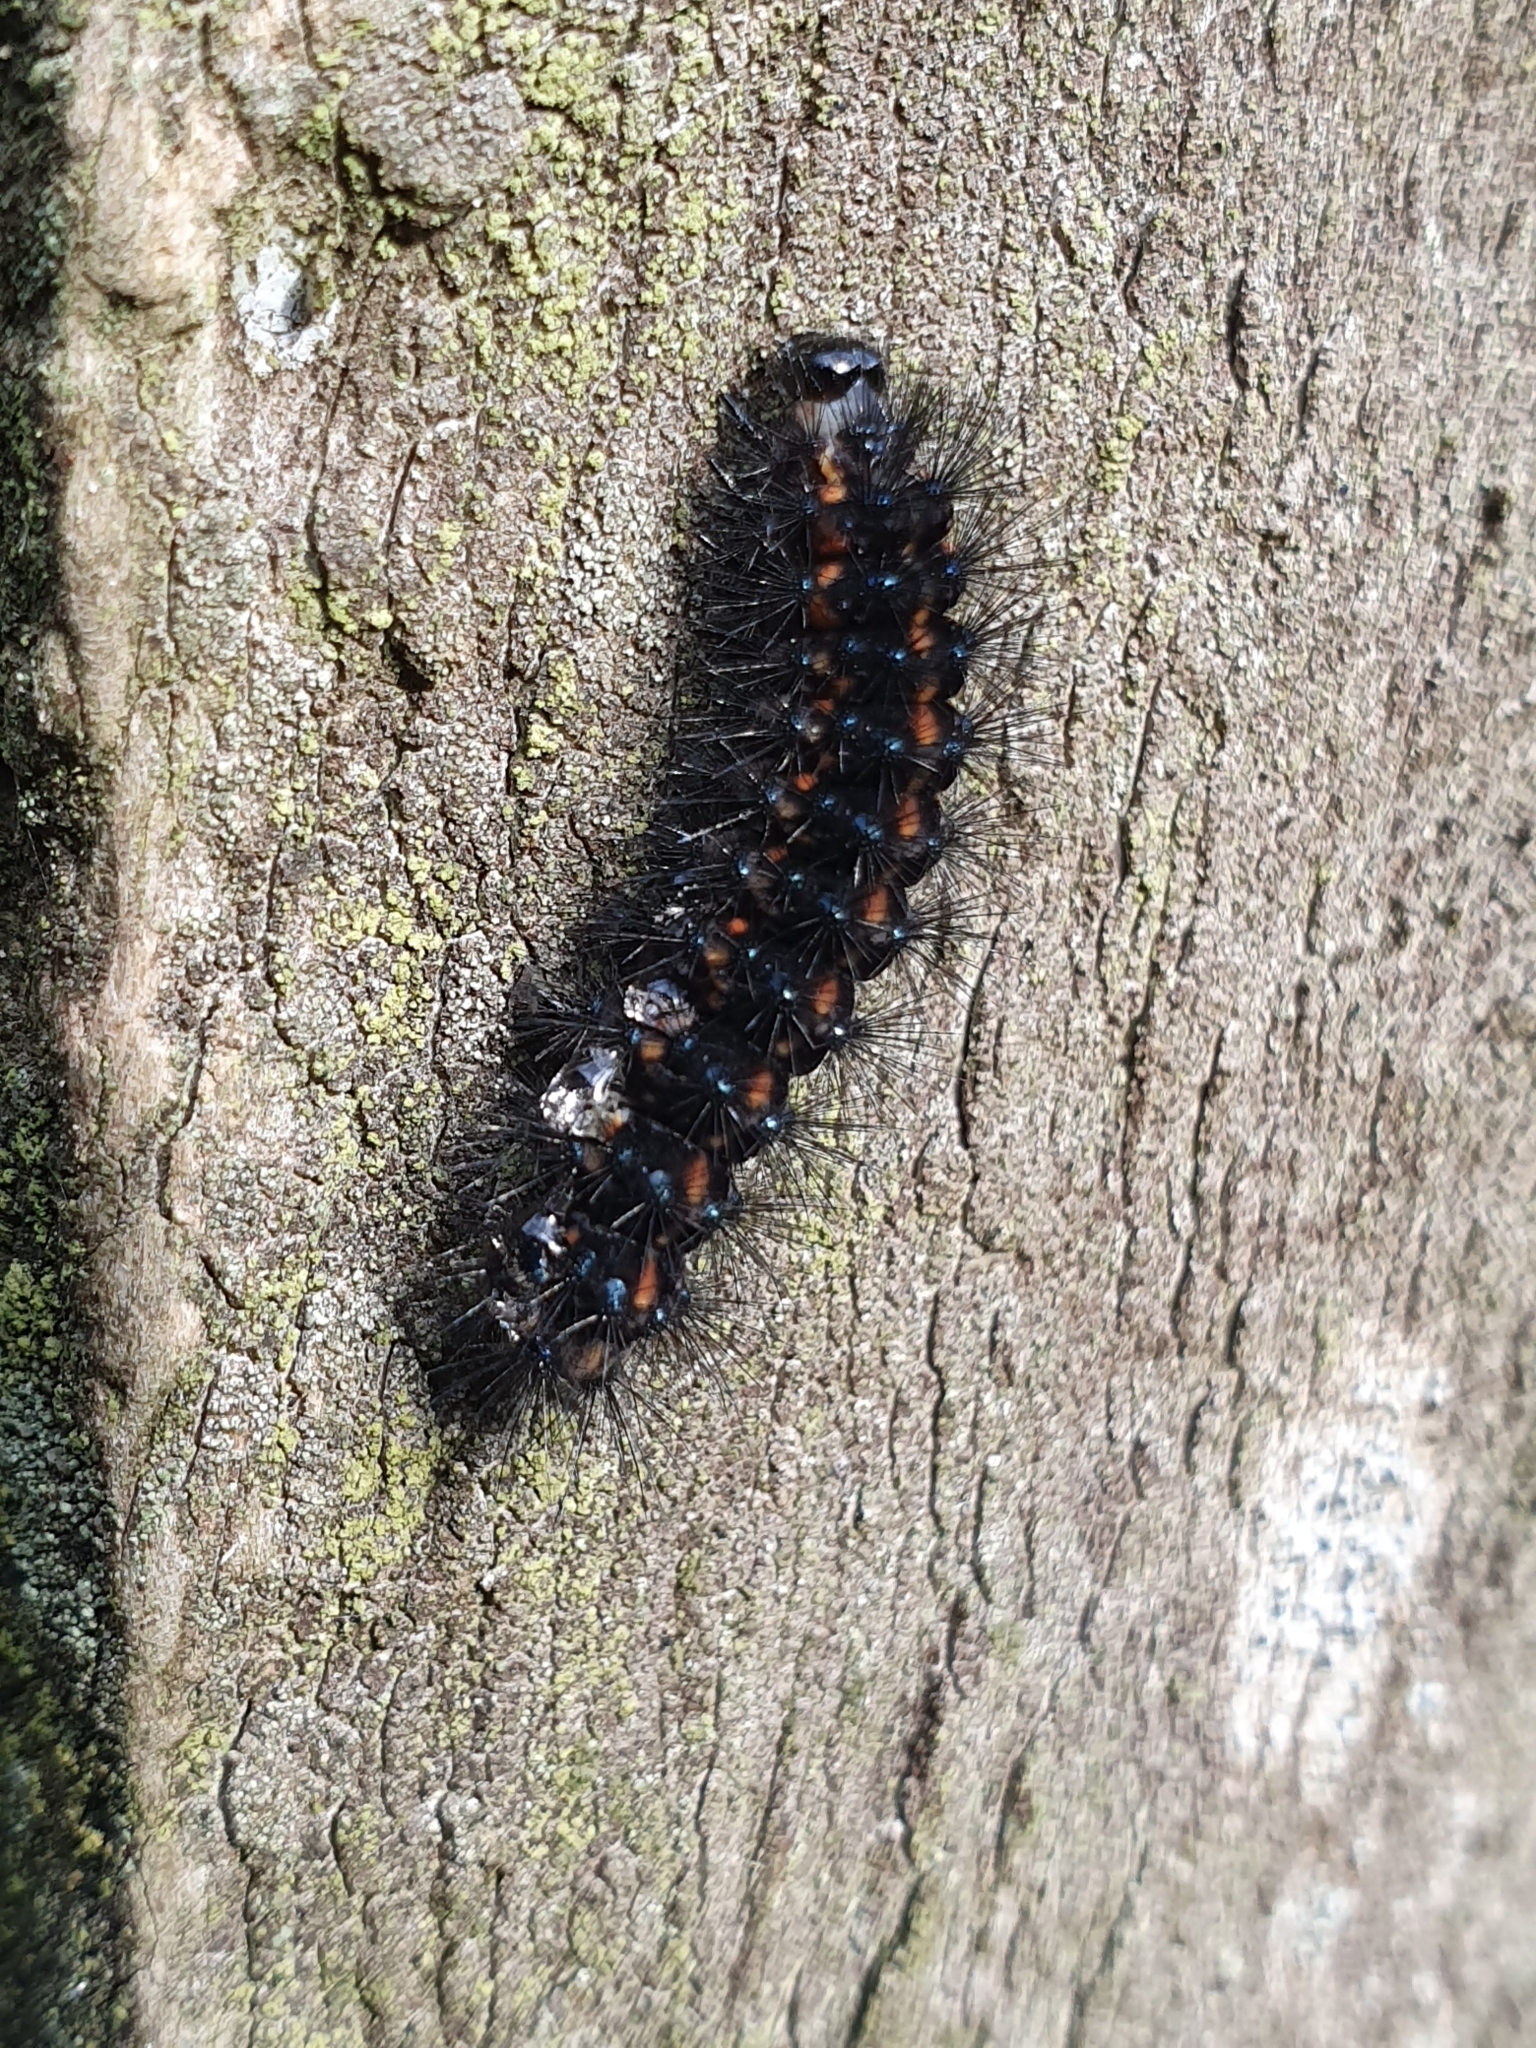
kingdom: Animalia
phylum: Arthropoda
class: Insecta
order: Lepidoptera
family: Erebidae
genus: Nyctemera
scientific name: Nyctemera annulatum
